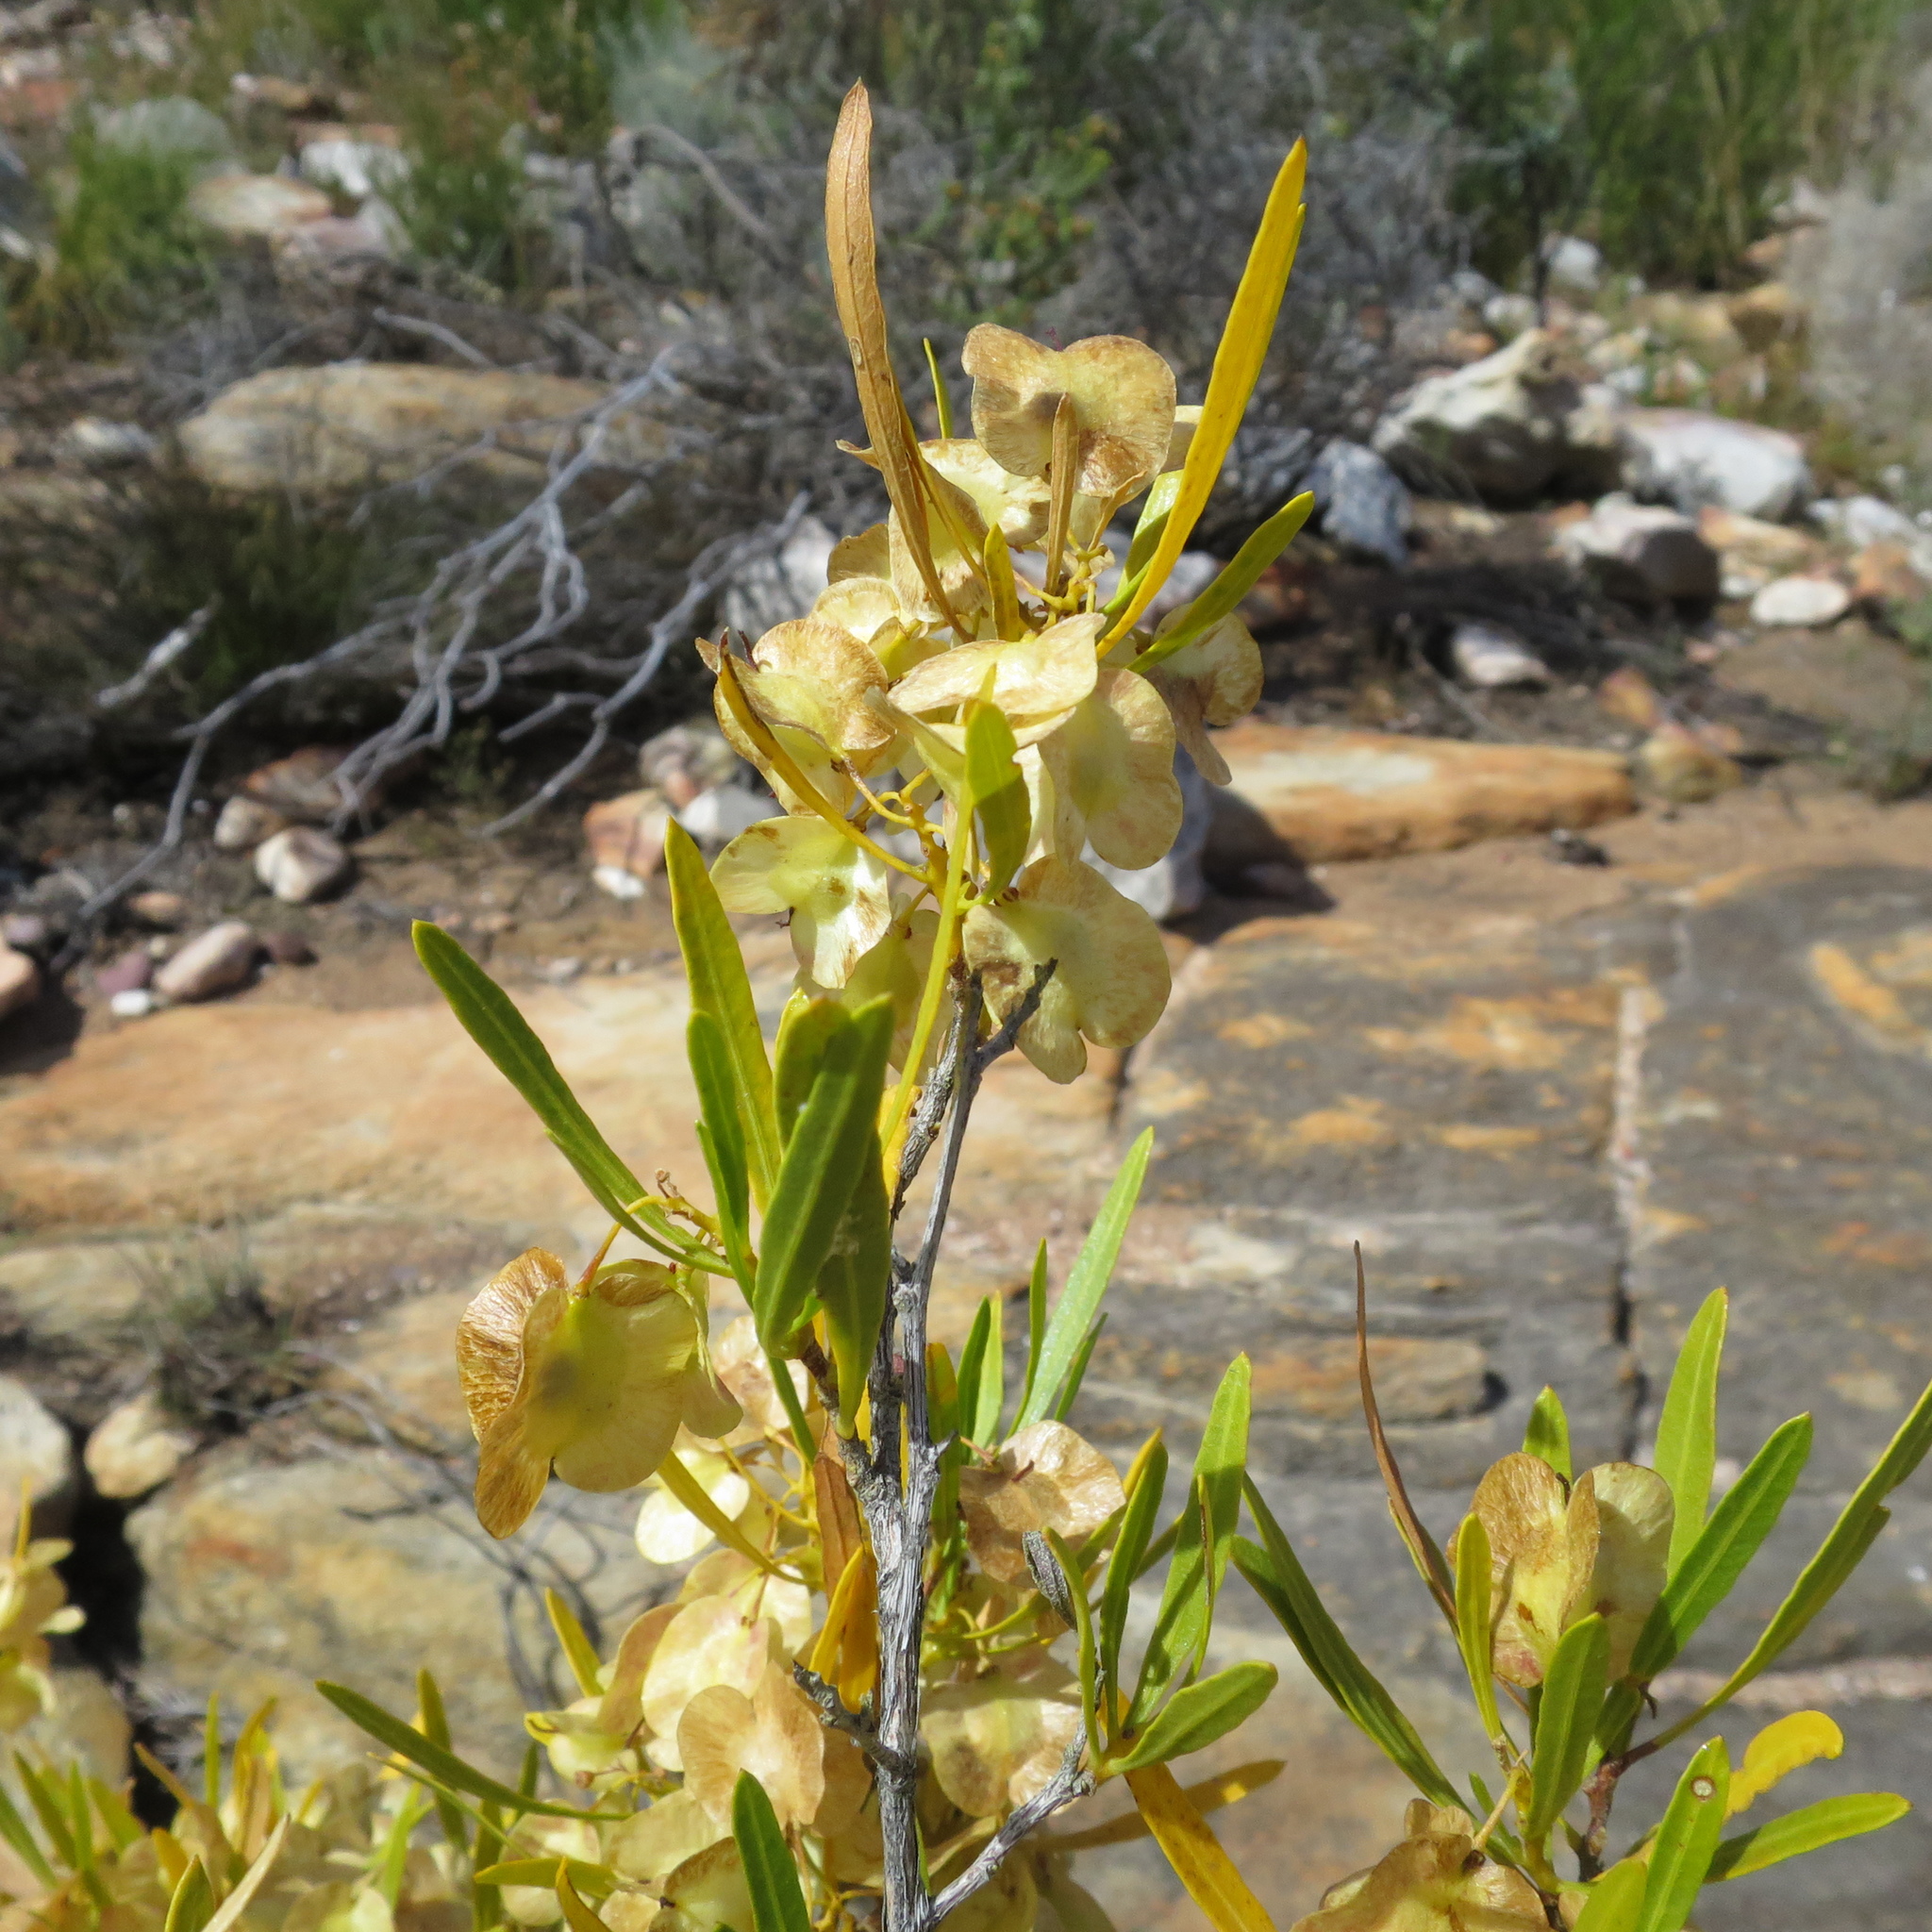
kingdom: Plantae
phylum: Tracheophyta
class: Magnoliopsida
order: Sapindales
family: Sapindaceae
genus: Dodonaea
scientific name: Dodonaea viscosa
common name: Hopbush
